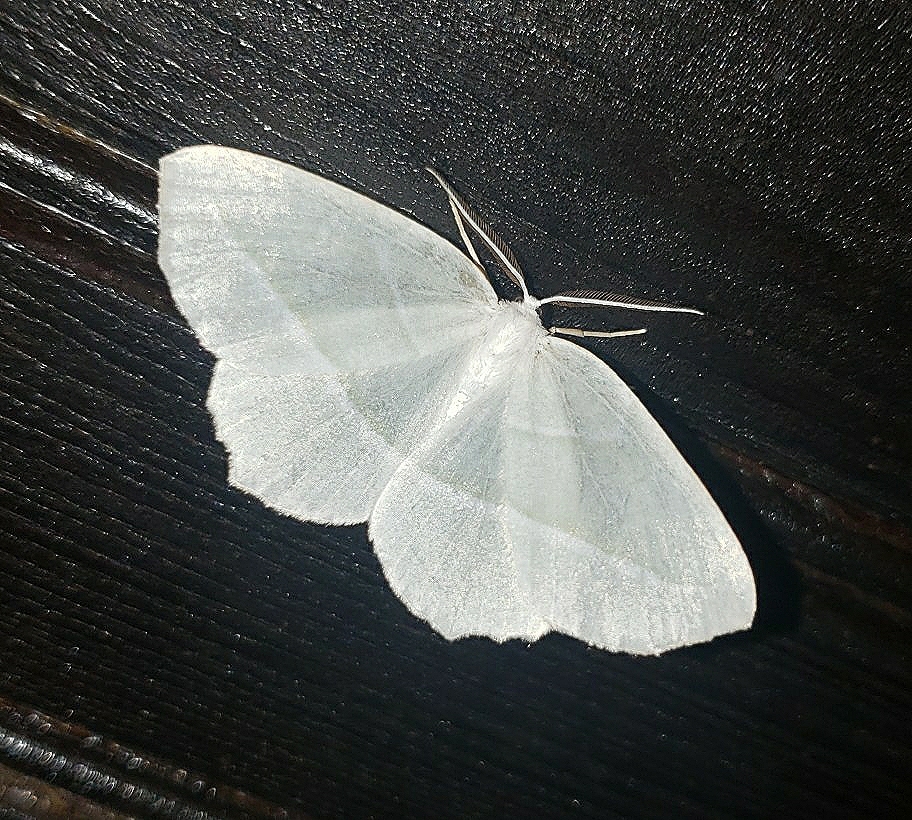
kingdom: Animalia
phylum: Arthropoda
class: Insecta
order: Lepidoptera
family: Geometridae
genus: Campaea
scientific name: Campaea perlata
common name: Fringed looper
